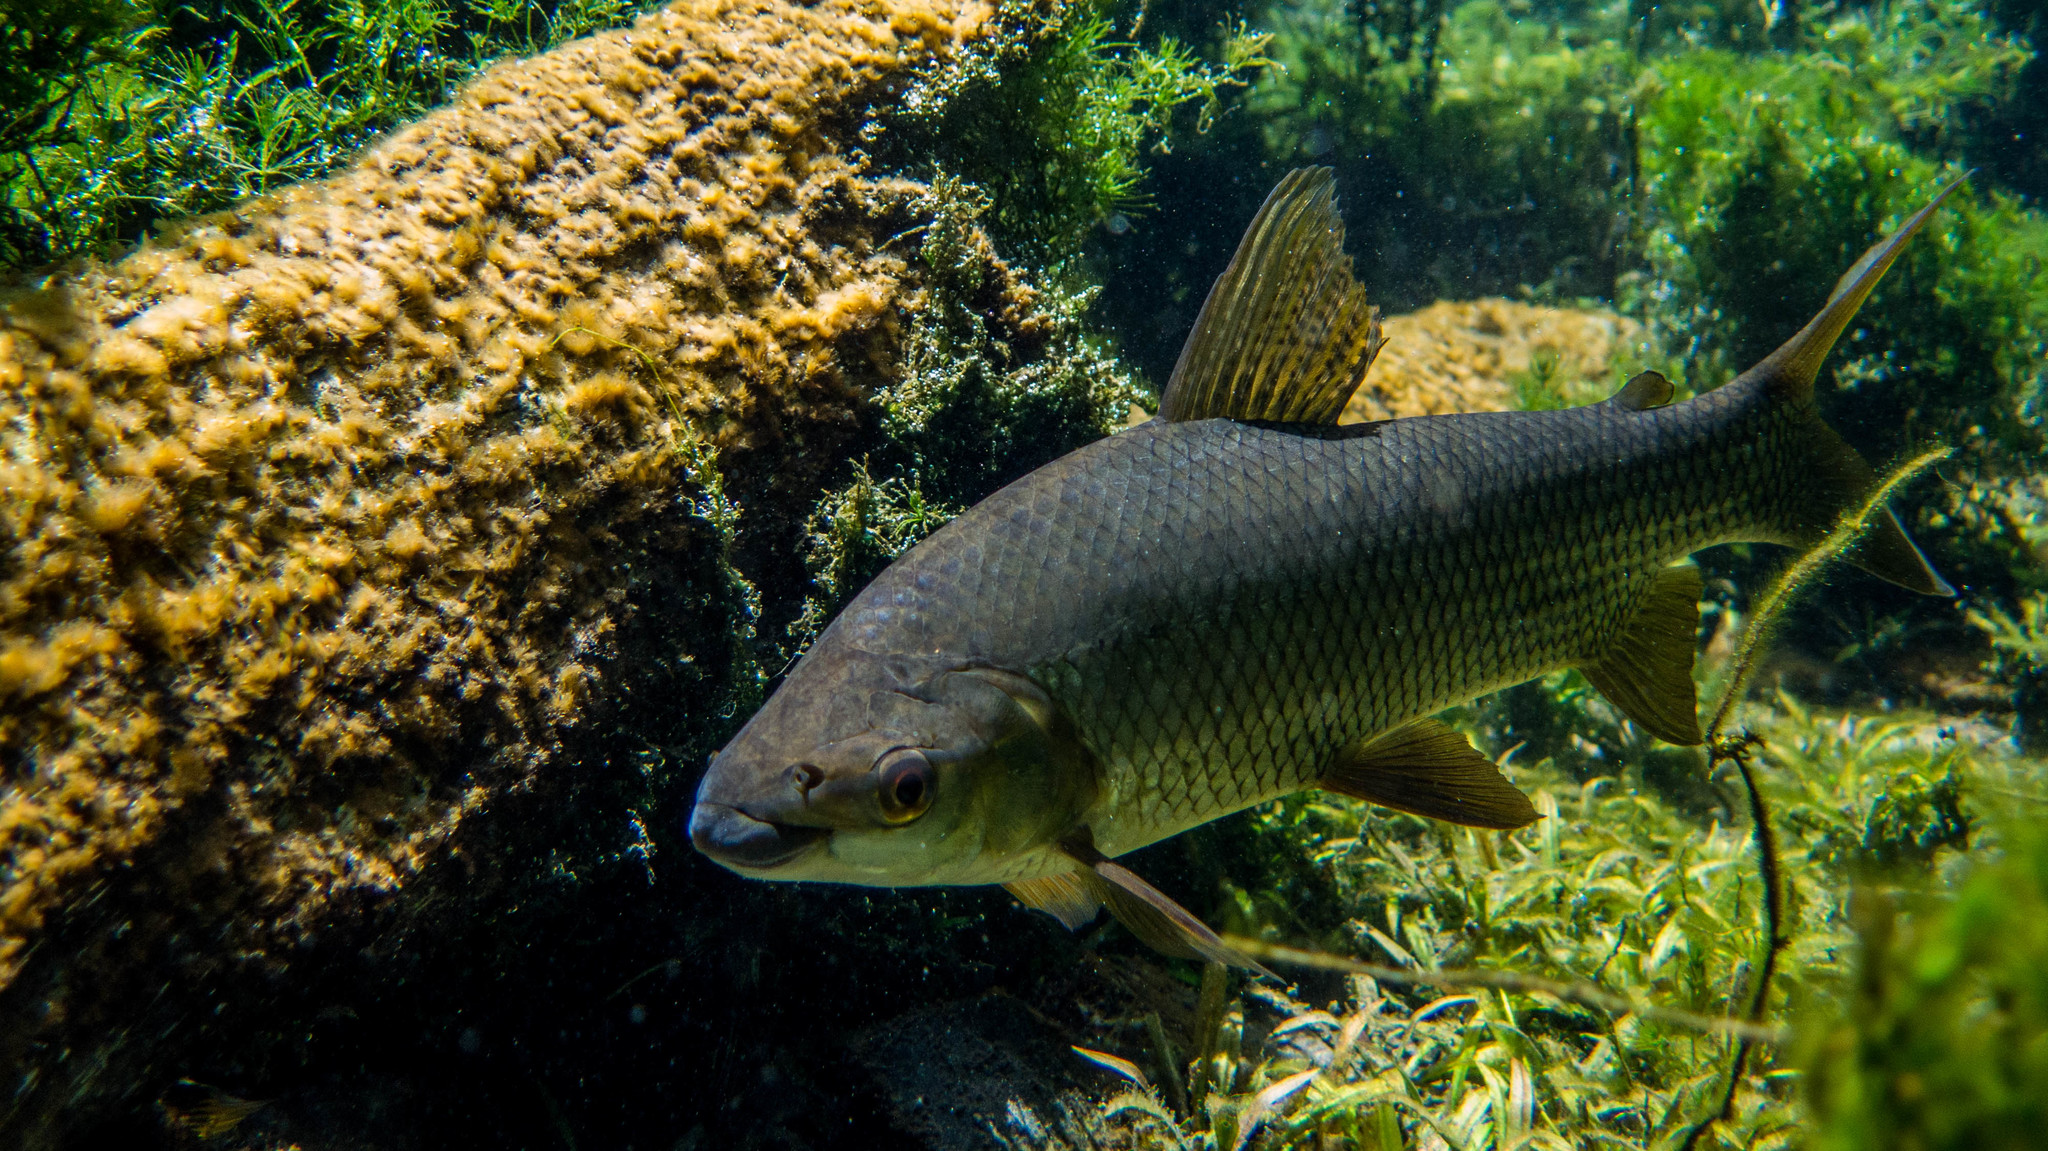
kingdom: Animalia
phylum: Chordata
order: Characiformes
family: Prochilodontidae
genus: Prochilodus
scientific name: Prochilodus lineatus
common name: Curimbata
